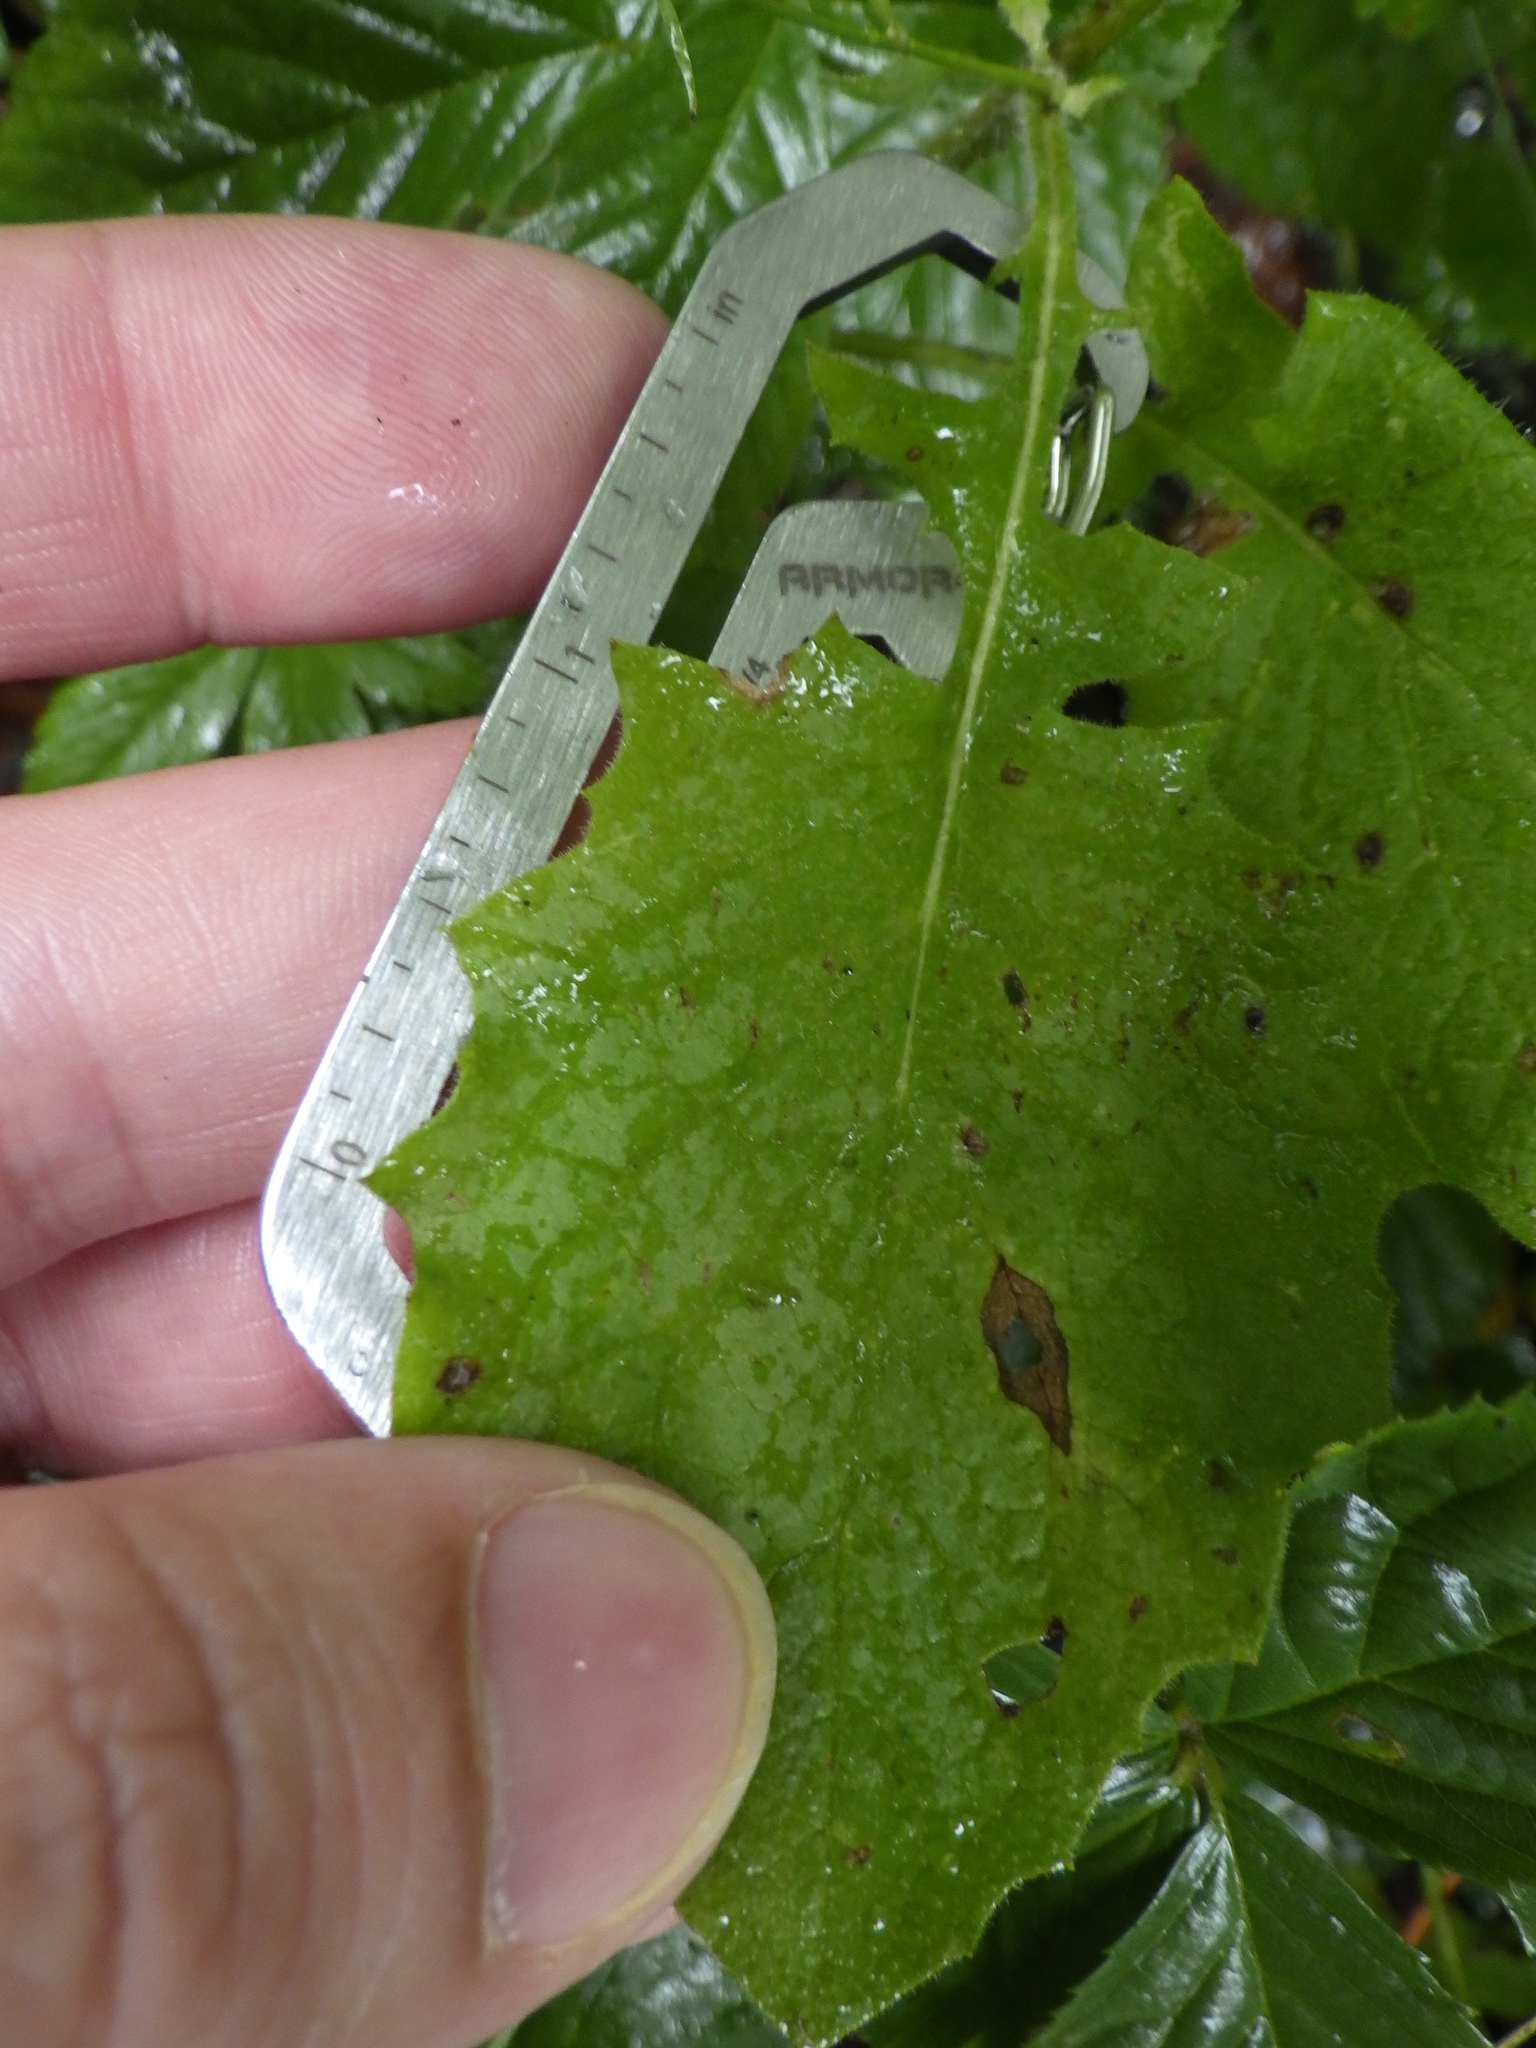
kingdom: Plantae
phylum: Tracheophyta
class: Magnoliopsida
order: Asterales
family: Asteraceae
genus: Lapsana
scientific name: Lapsana communis
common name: Nipplewort
